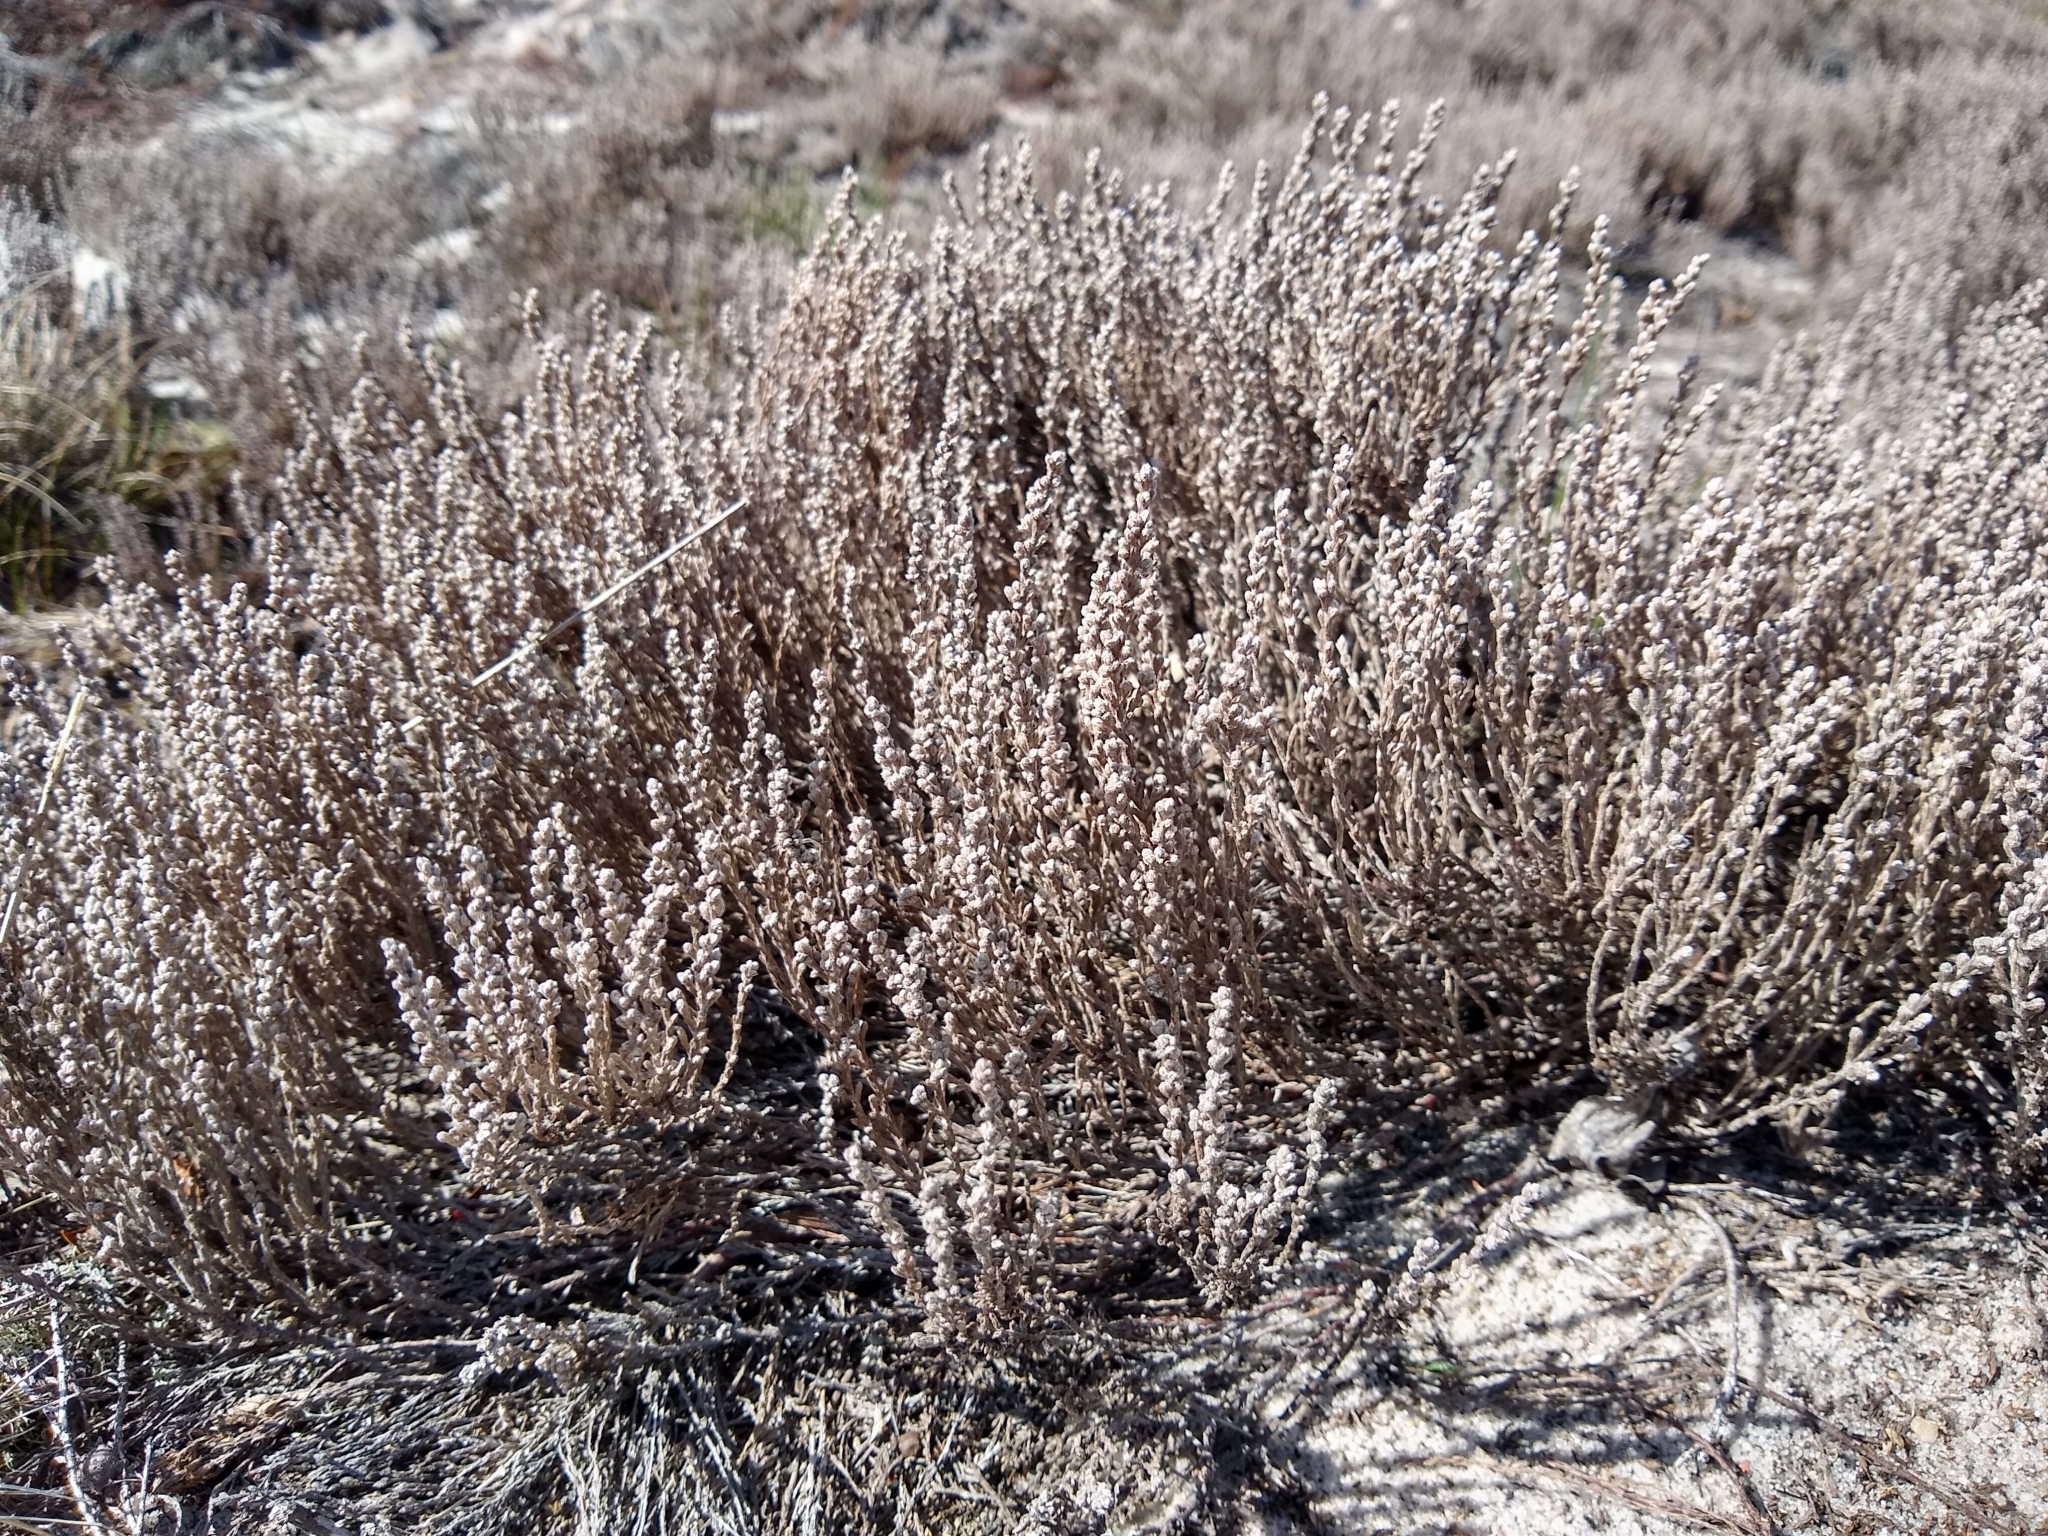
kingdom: Plantae
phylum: Tracheophyta
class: Magnoliopsida
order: Malvales
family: Cistaceae
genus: Hudsonia
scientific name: Hudsonia tomentosa
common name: Beach-heath
